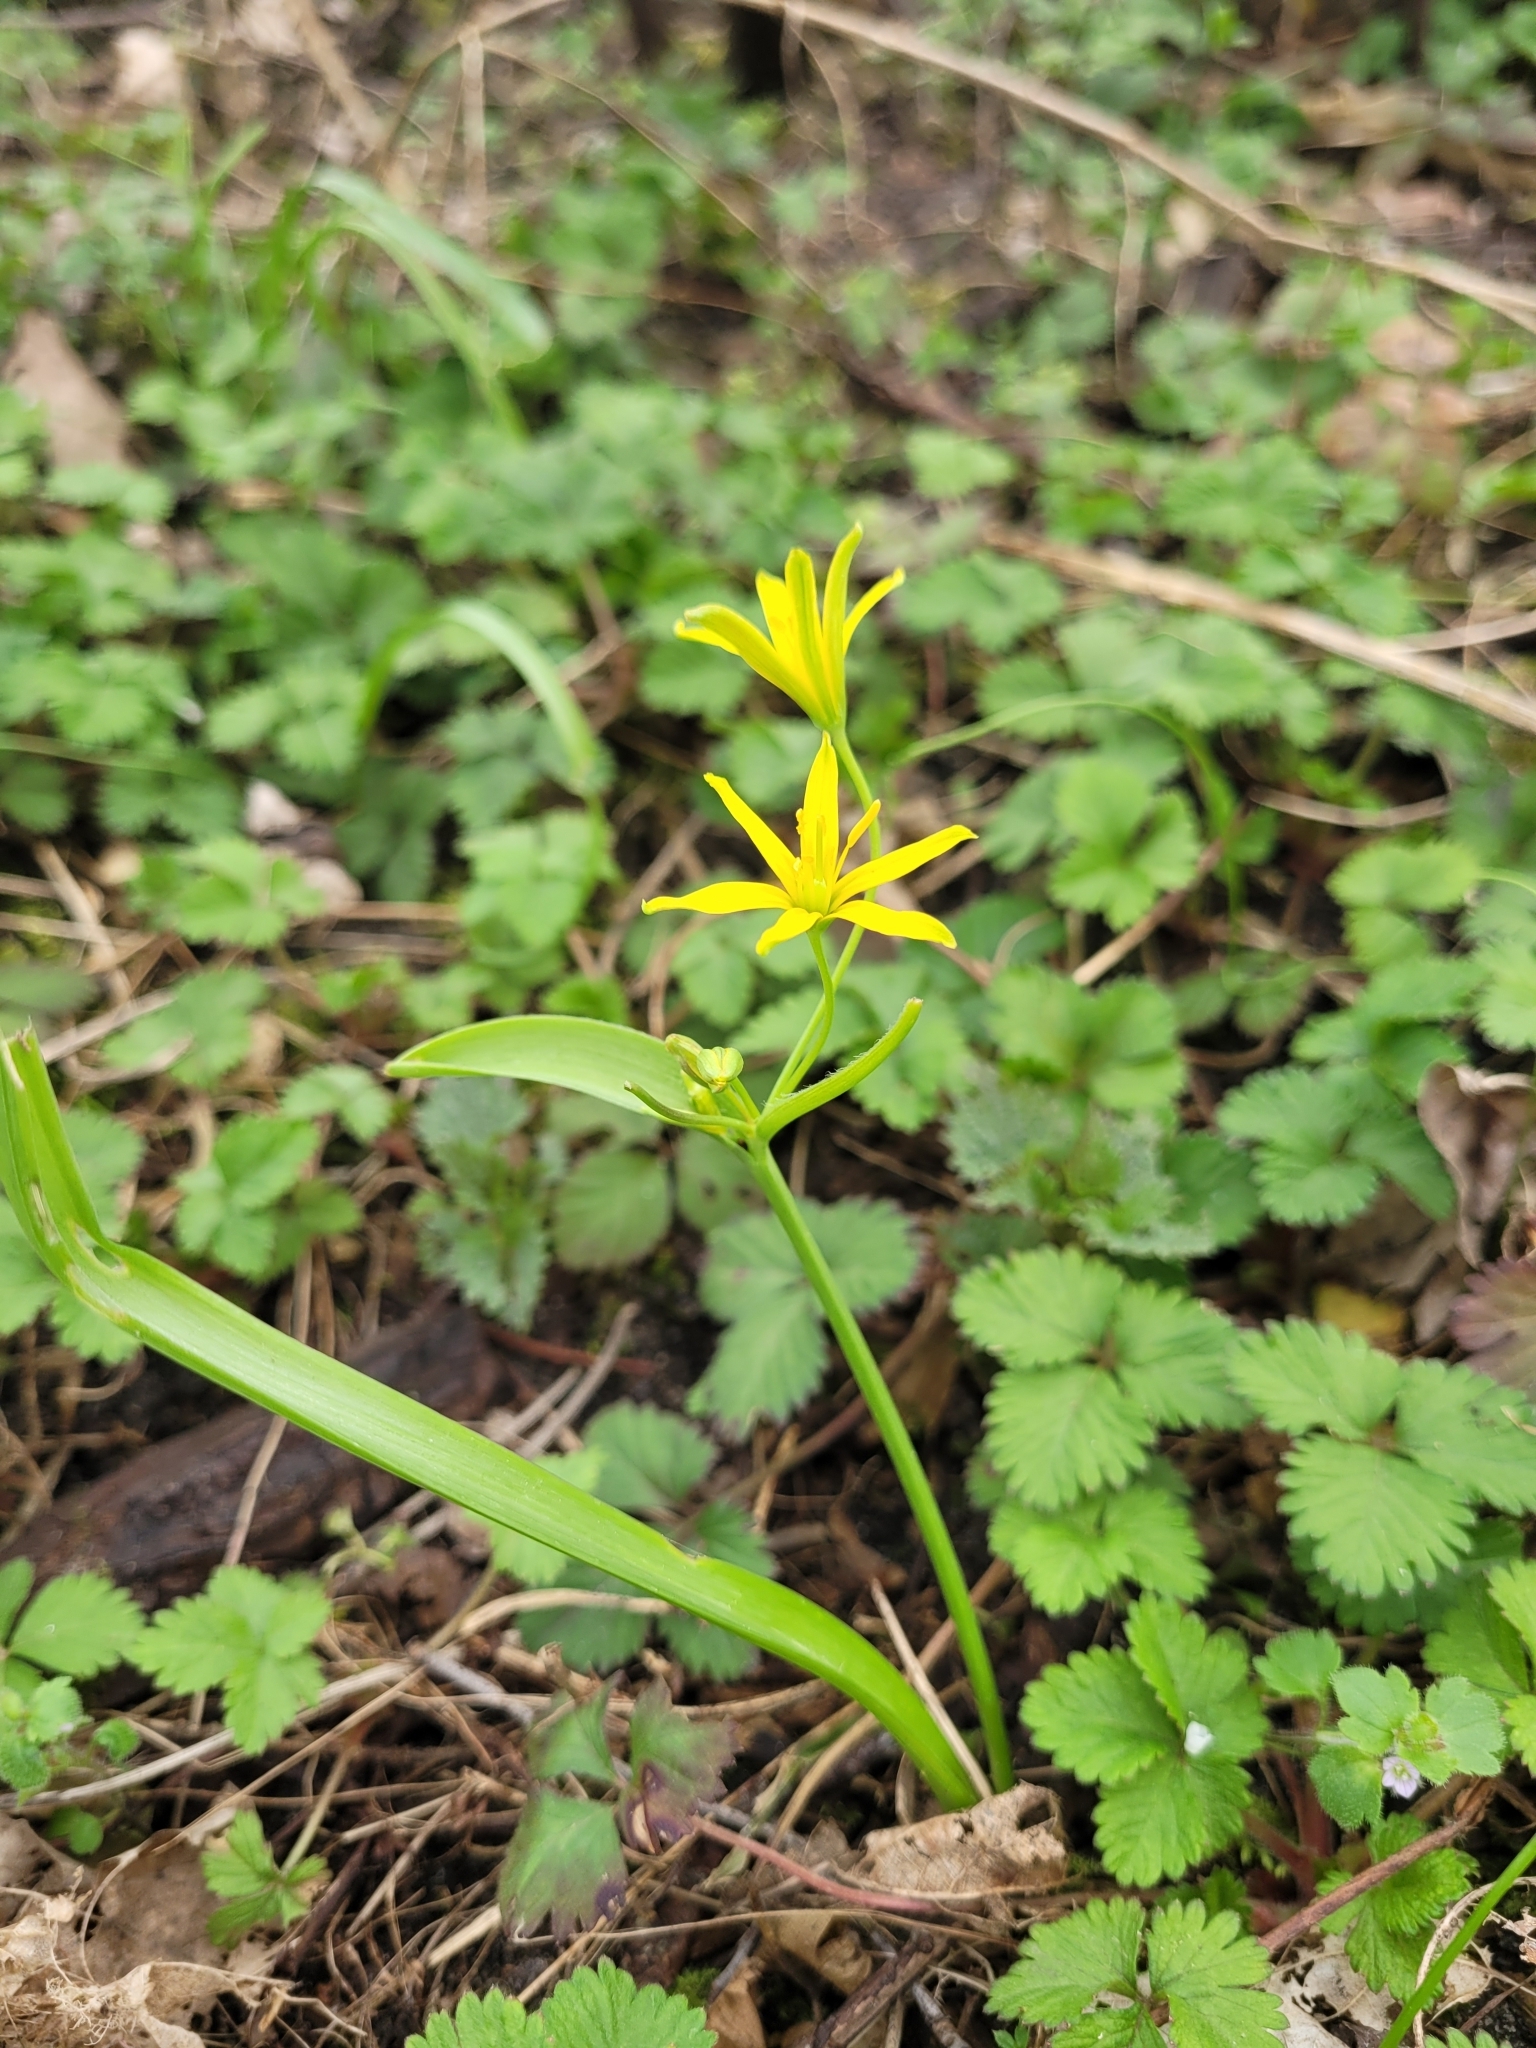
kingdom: Plantae
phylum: Tracheophyta
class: Liliopsida
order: Liliales
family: Liliaceae
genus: Gagea
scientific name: Gagea lutea
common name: Yellow star-of-bethlehem
